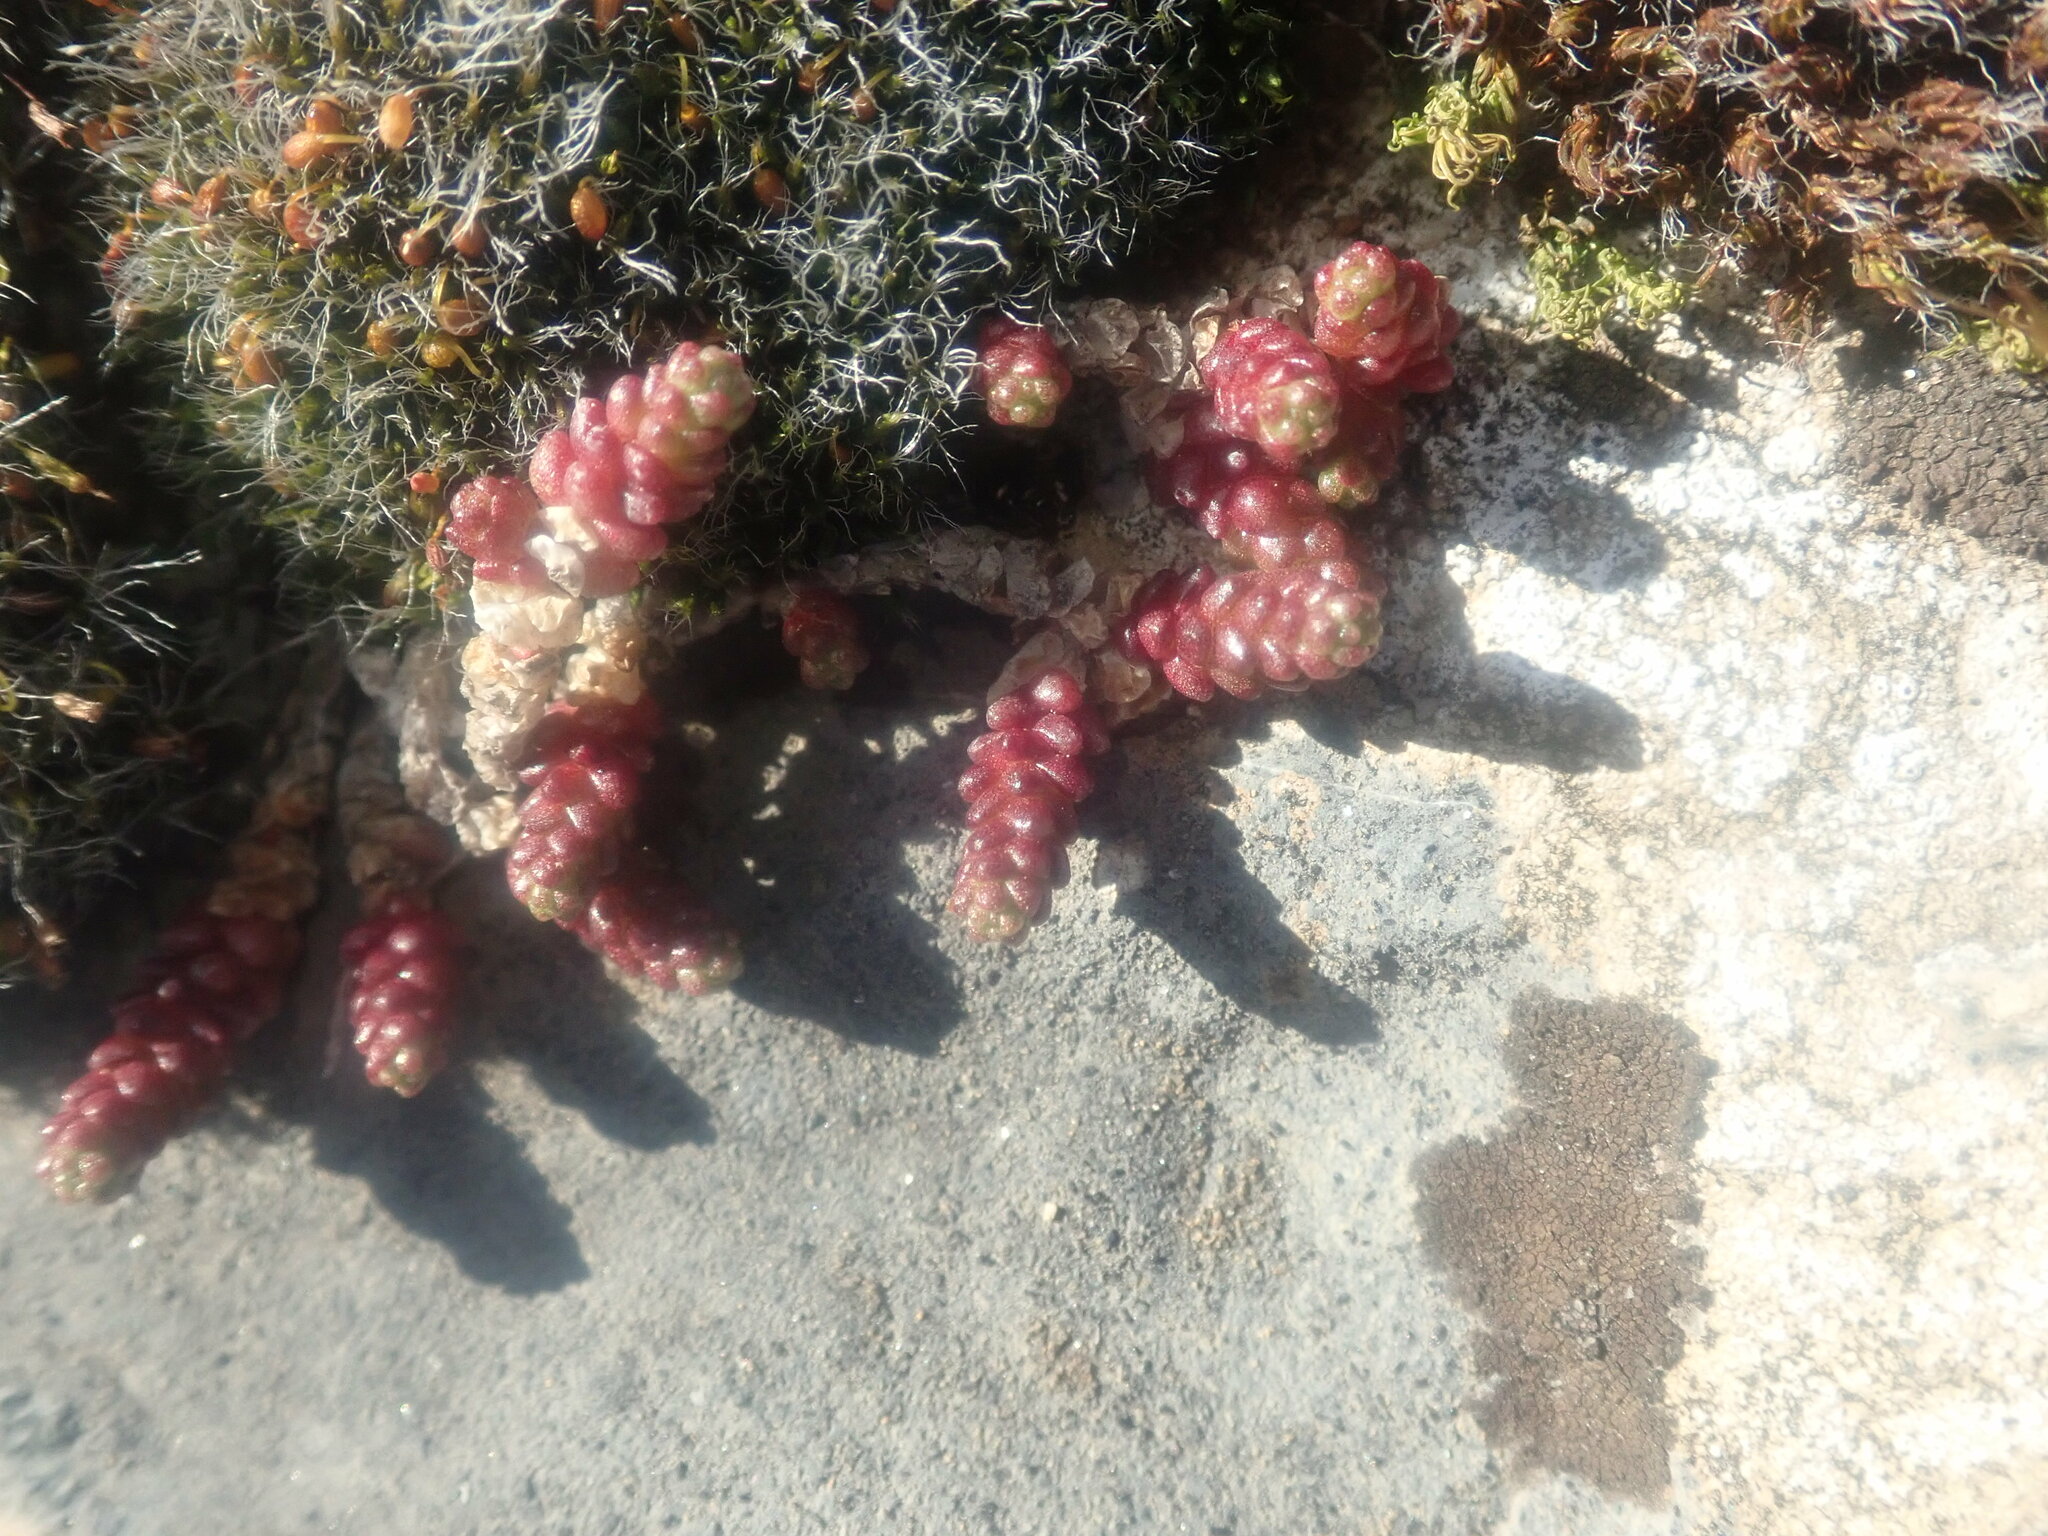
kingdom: Plantae
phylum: Tracheophyta
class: Magnoliopsida
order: Saxifragales
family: Crassulaceae
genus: Sedum
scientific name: Sedum acre
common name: Biting stonecrop
